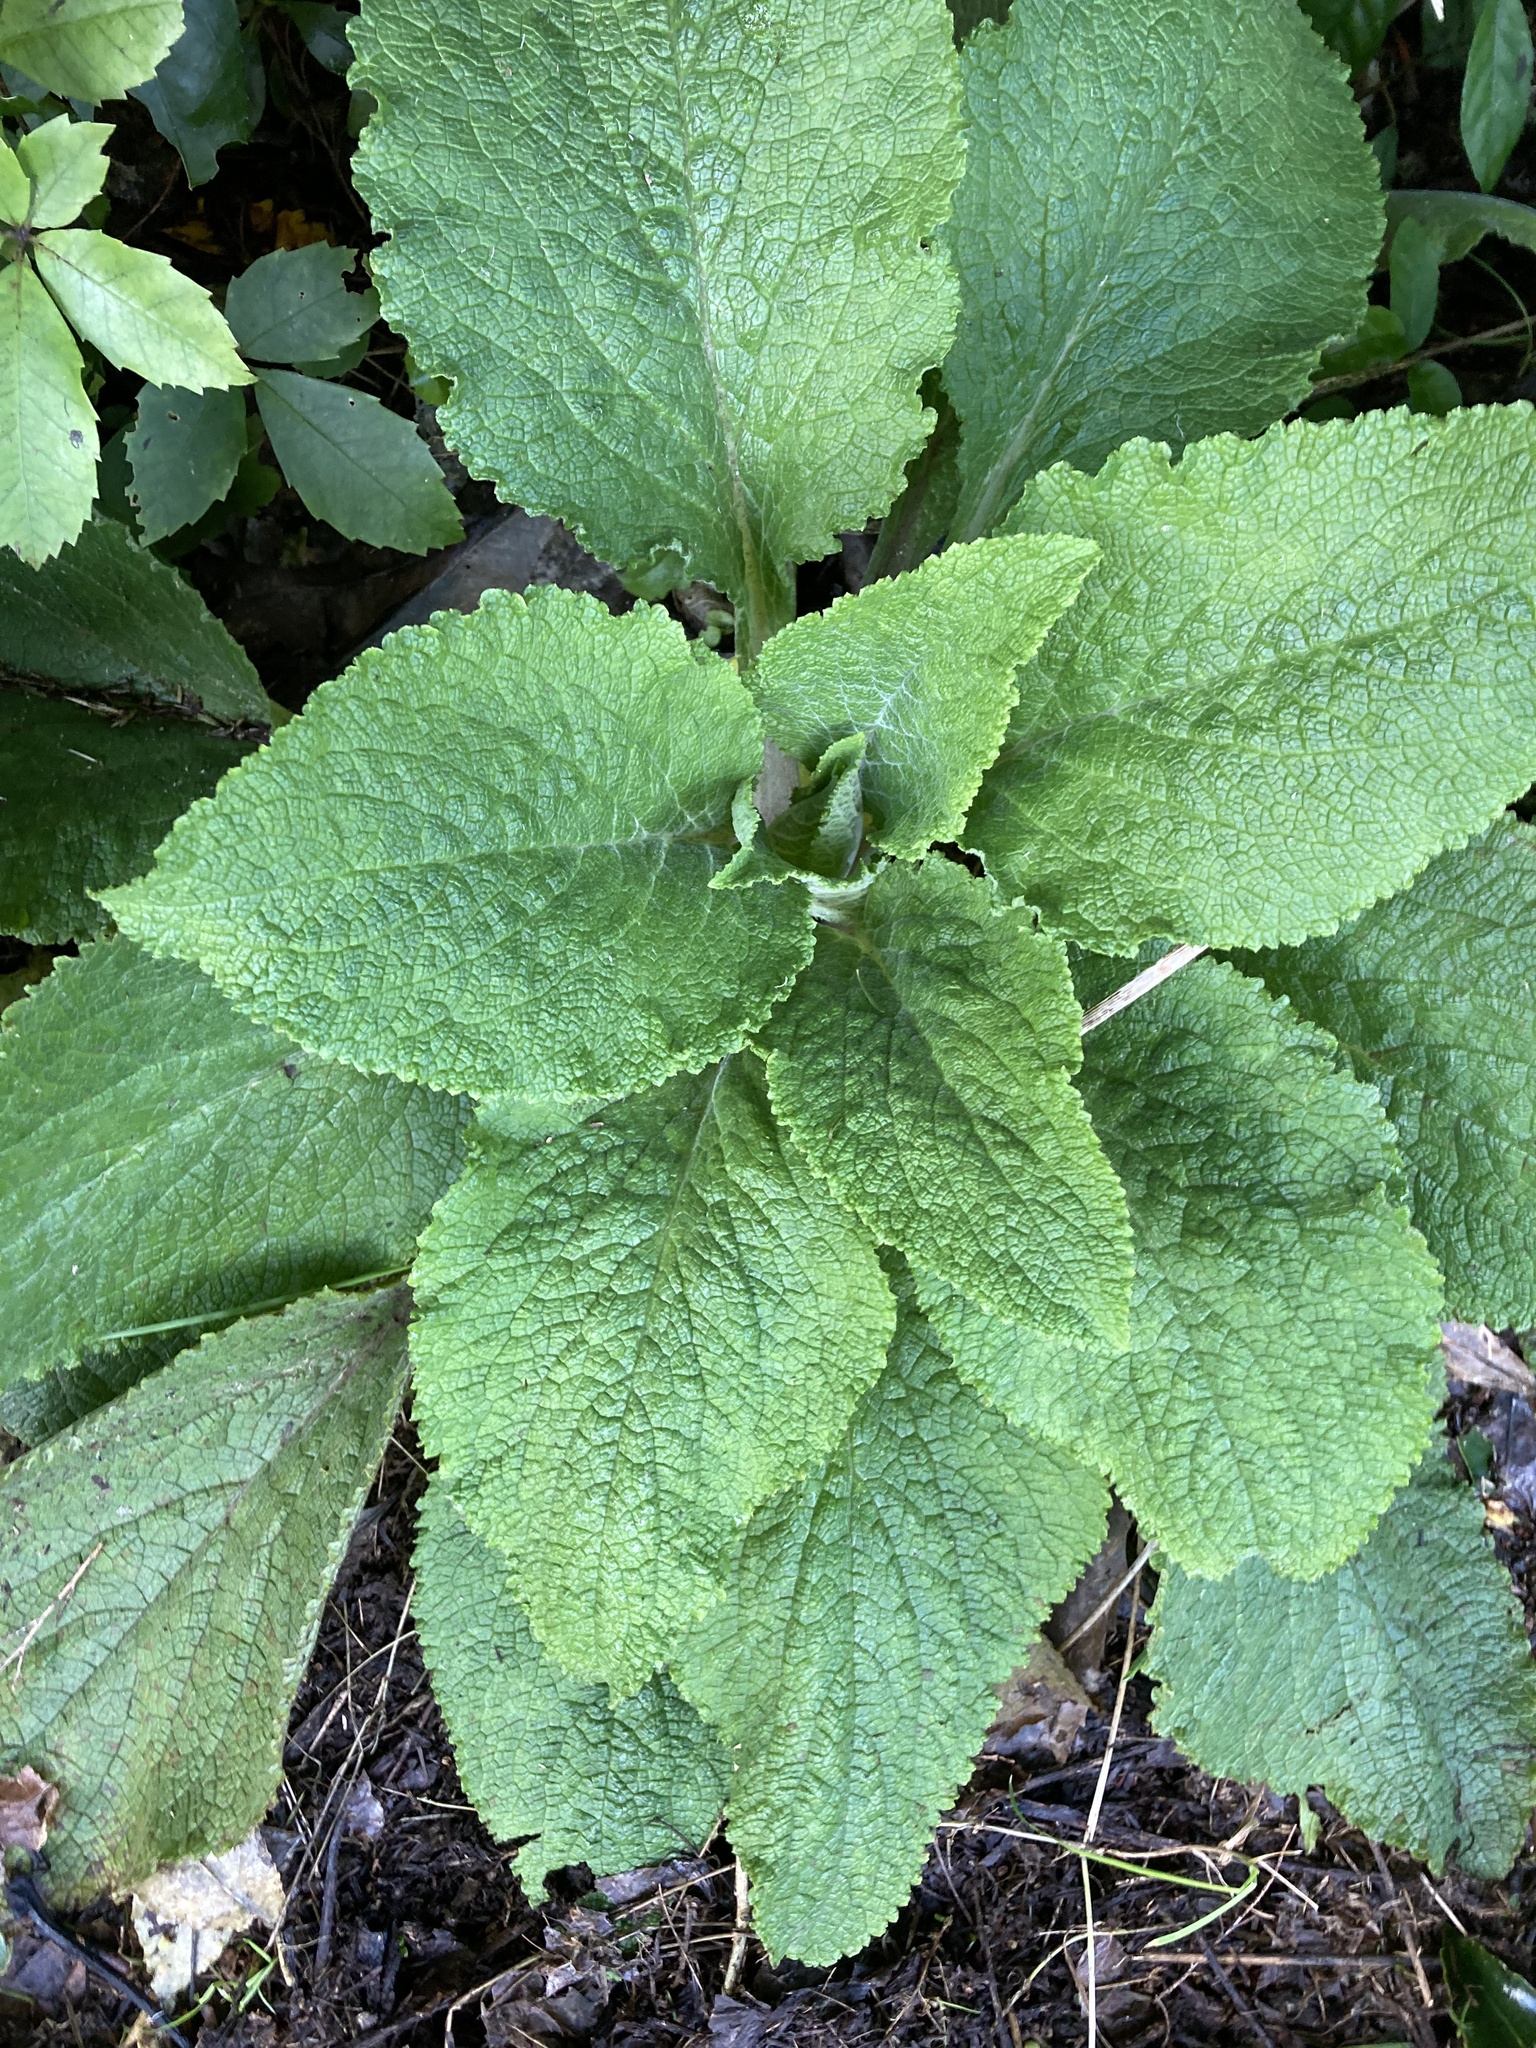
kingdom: Plantae
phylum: Tracheophyta
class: Magnoliopsida
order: Lamiales
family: Plantaginaceae
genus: Digitalis
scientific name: Digitalis purpurea
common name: Foxglove
